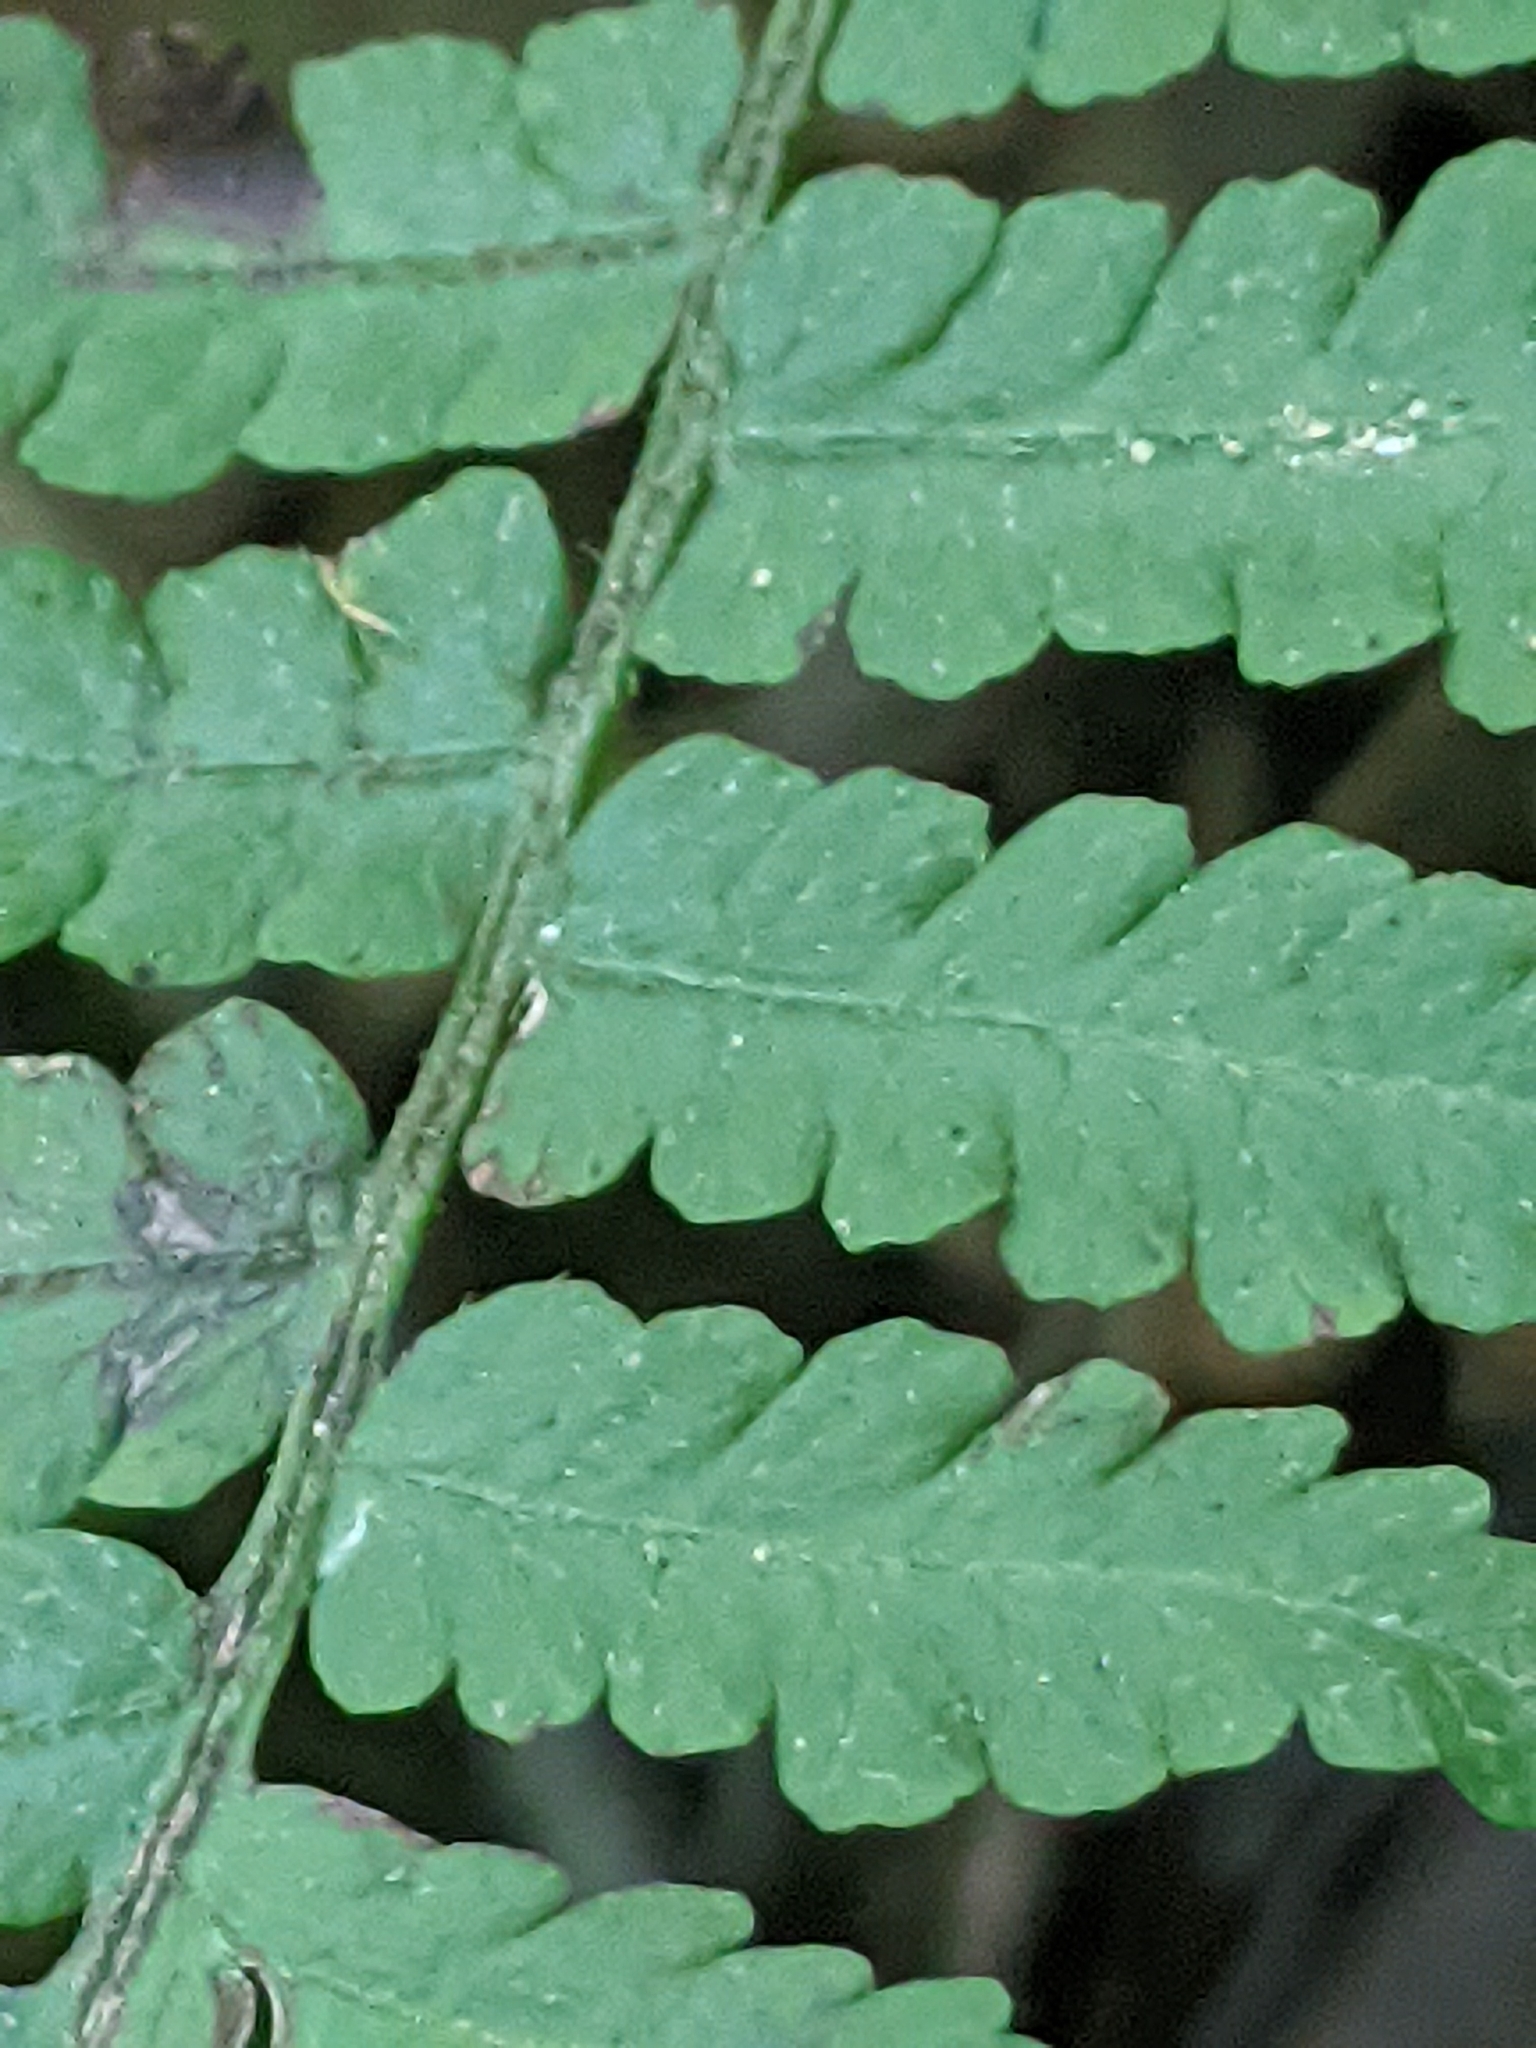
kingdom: Plantae
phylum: Tracheophyta
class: Polypodiopsida
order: Polypodiales
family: Athyriaceae
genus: Deparia
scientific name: Deparia acrostichoides
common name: Silver false spleenwort
